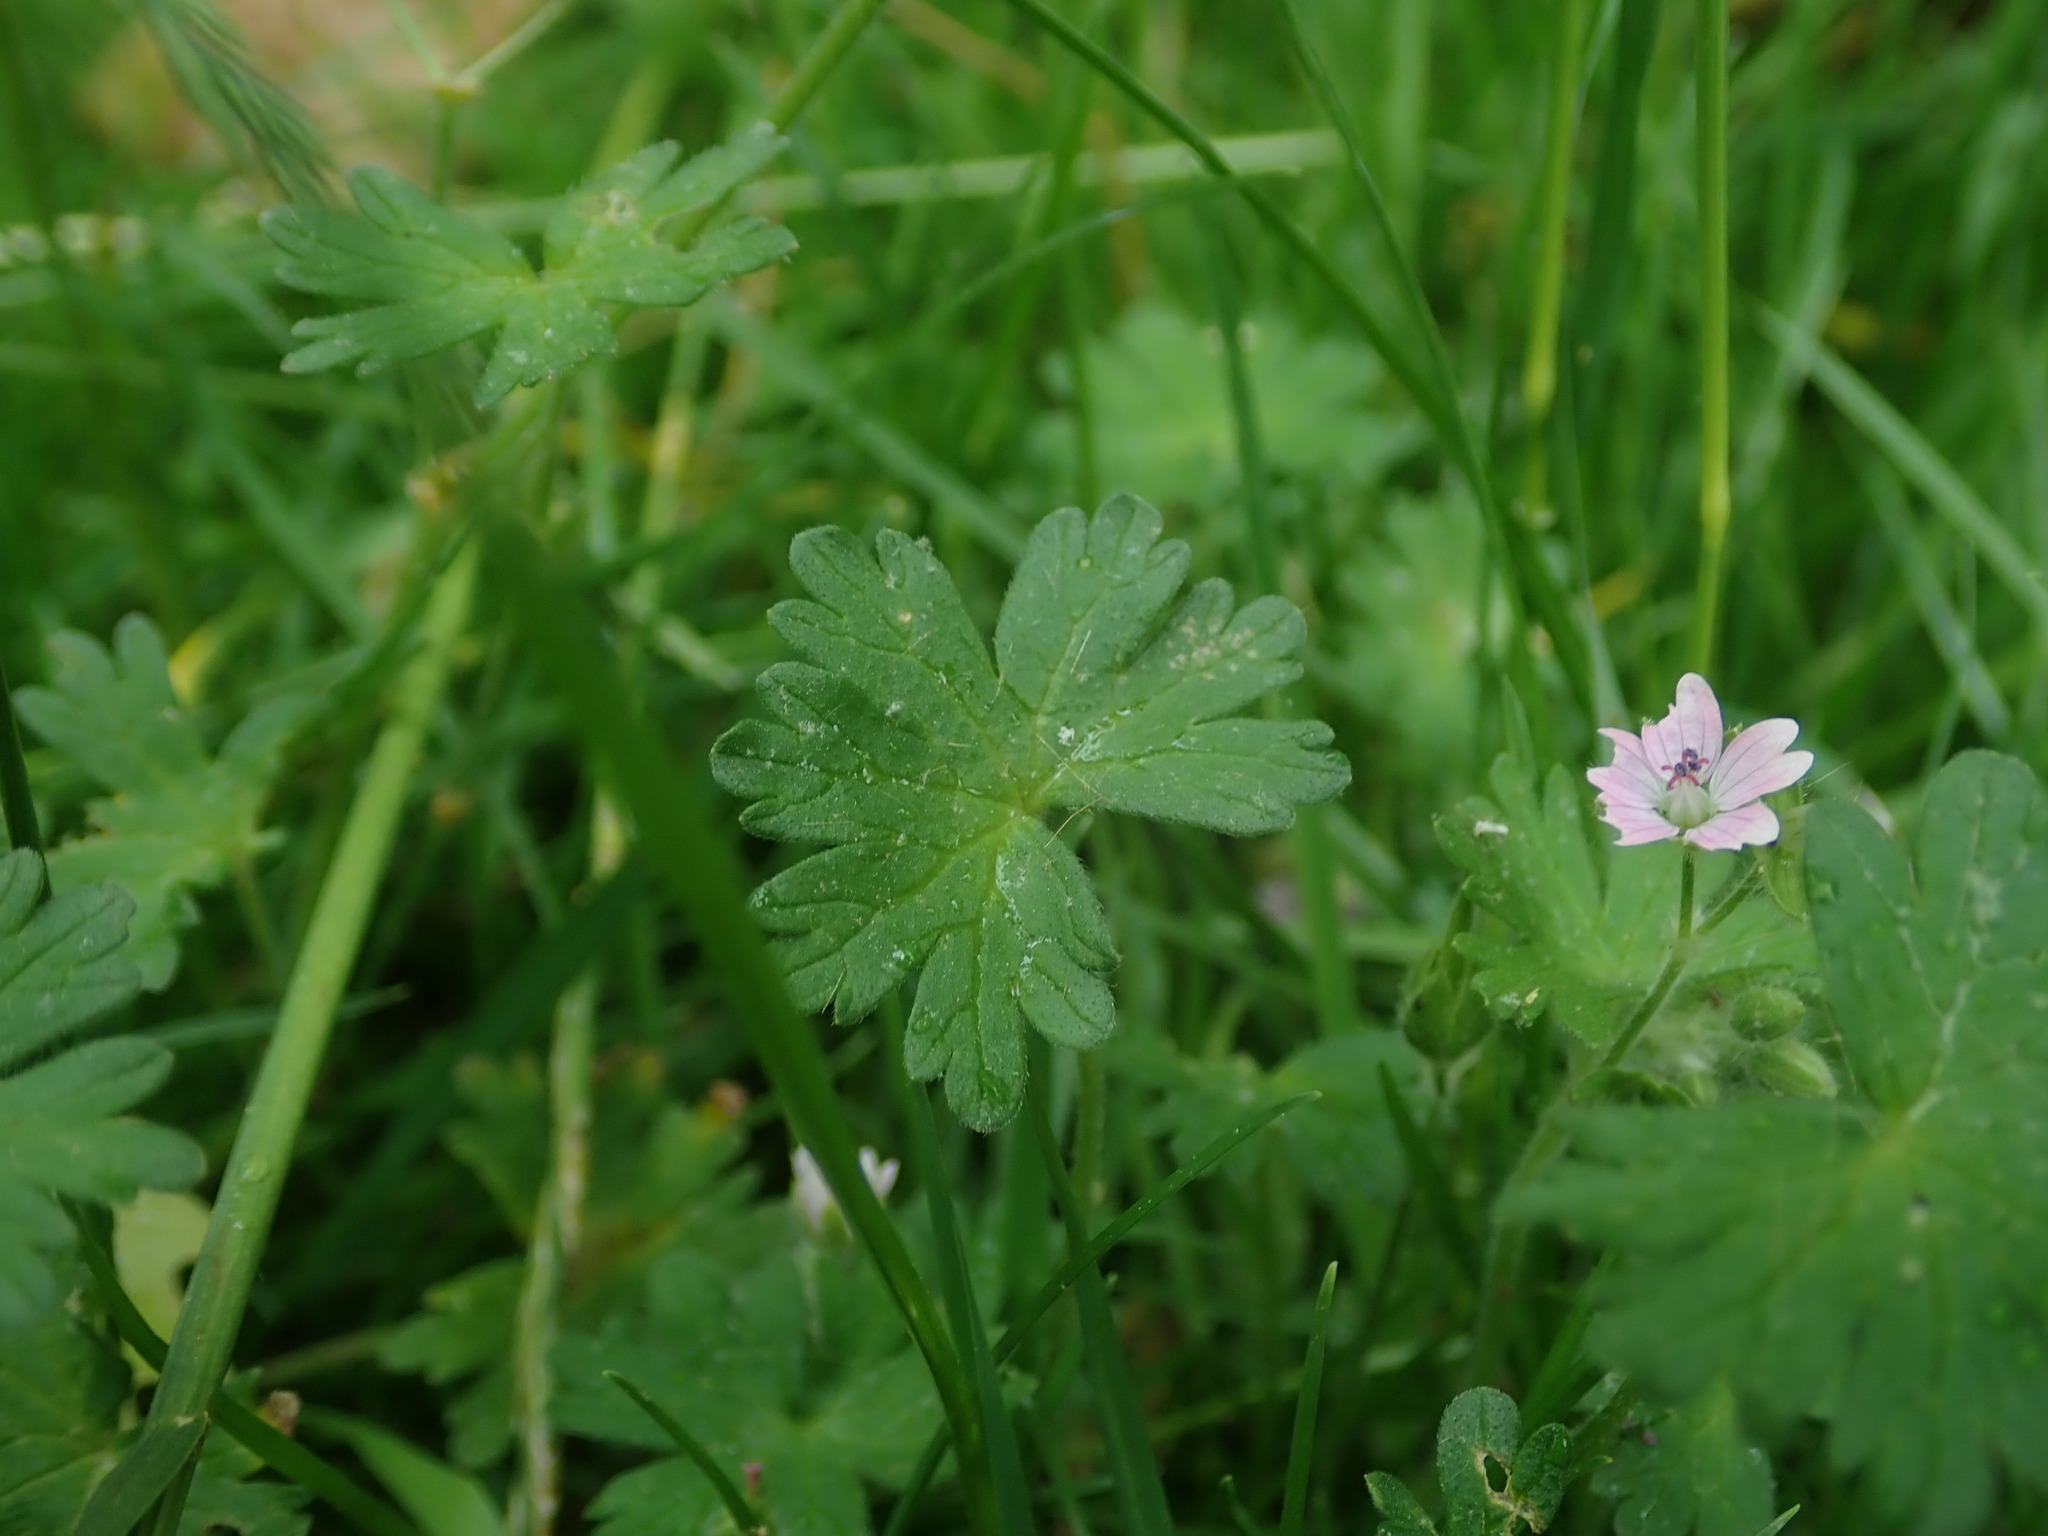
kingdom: Plantae
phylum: Tracheophyta
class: Magnoliopsida
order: Geraniales
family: Geraniaceae
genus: Geranium
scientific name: Geranium molle
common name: Dove's-foot crane's-bill
